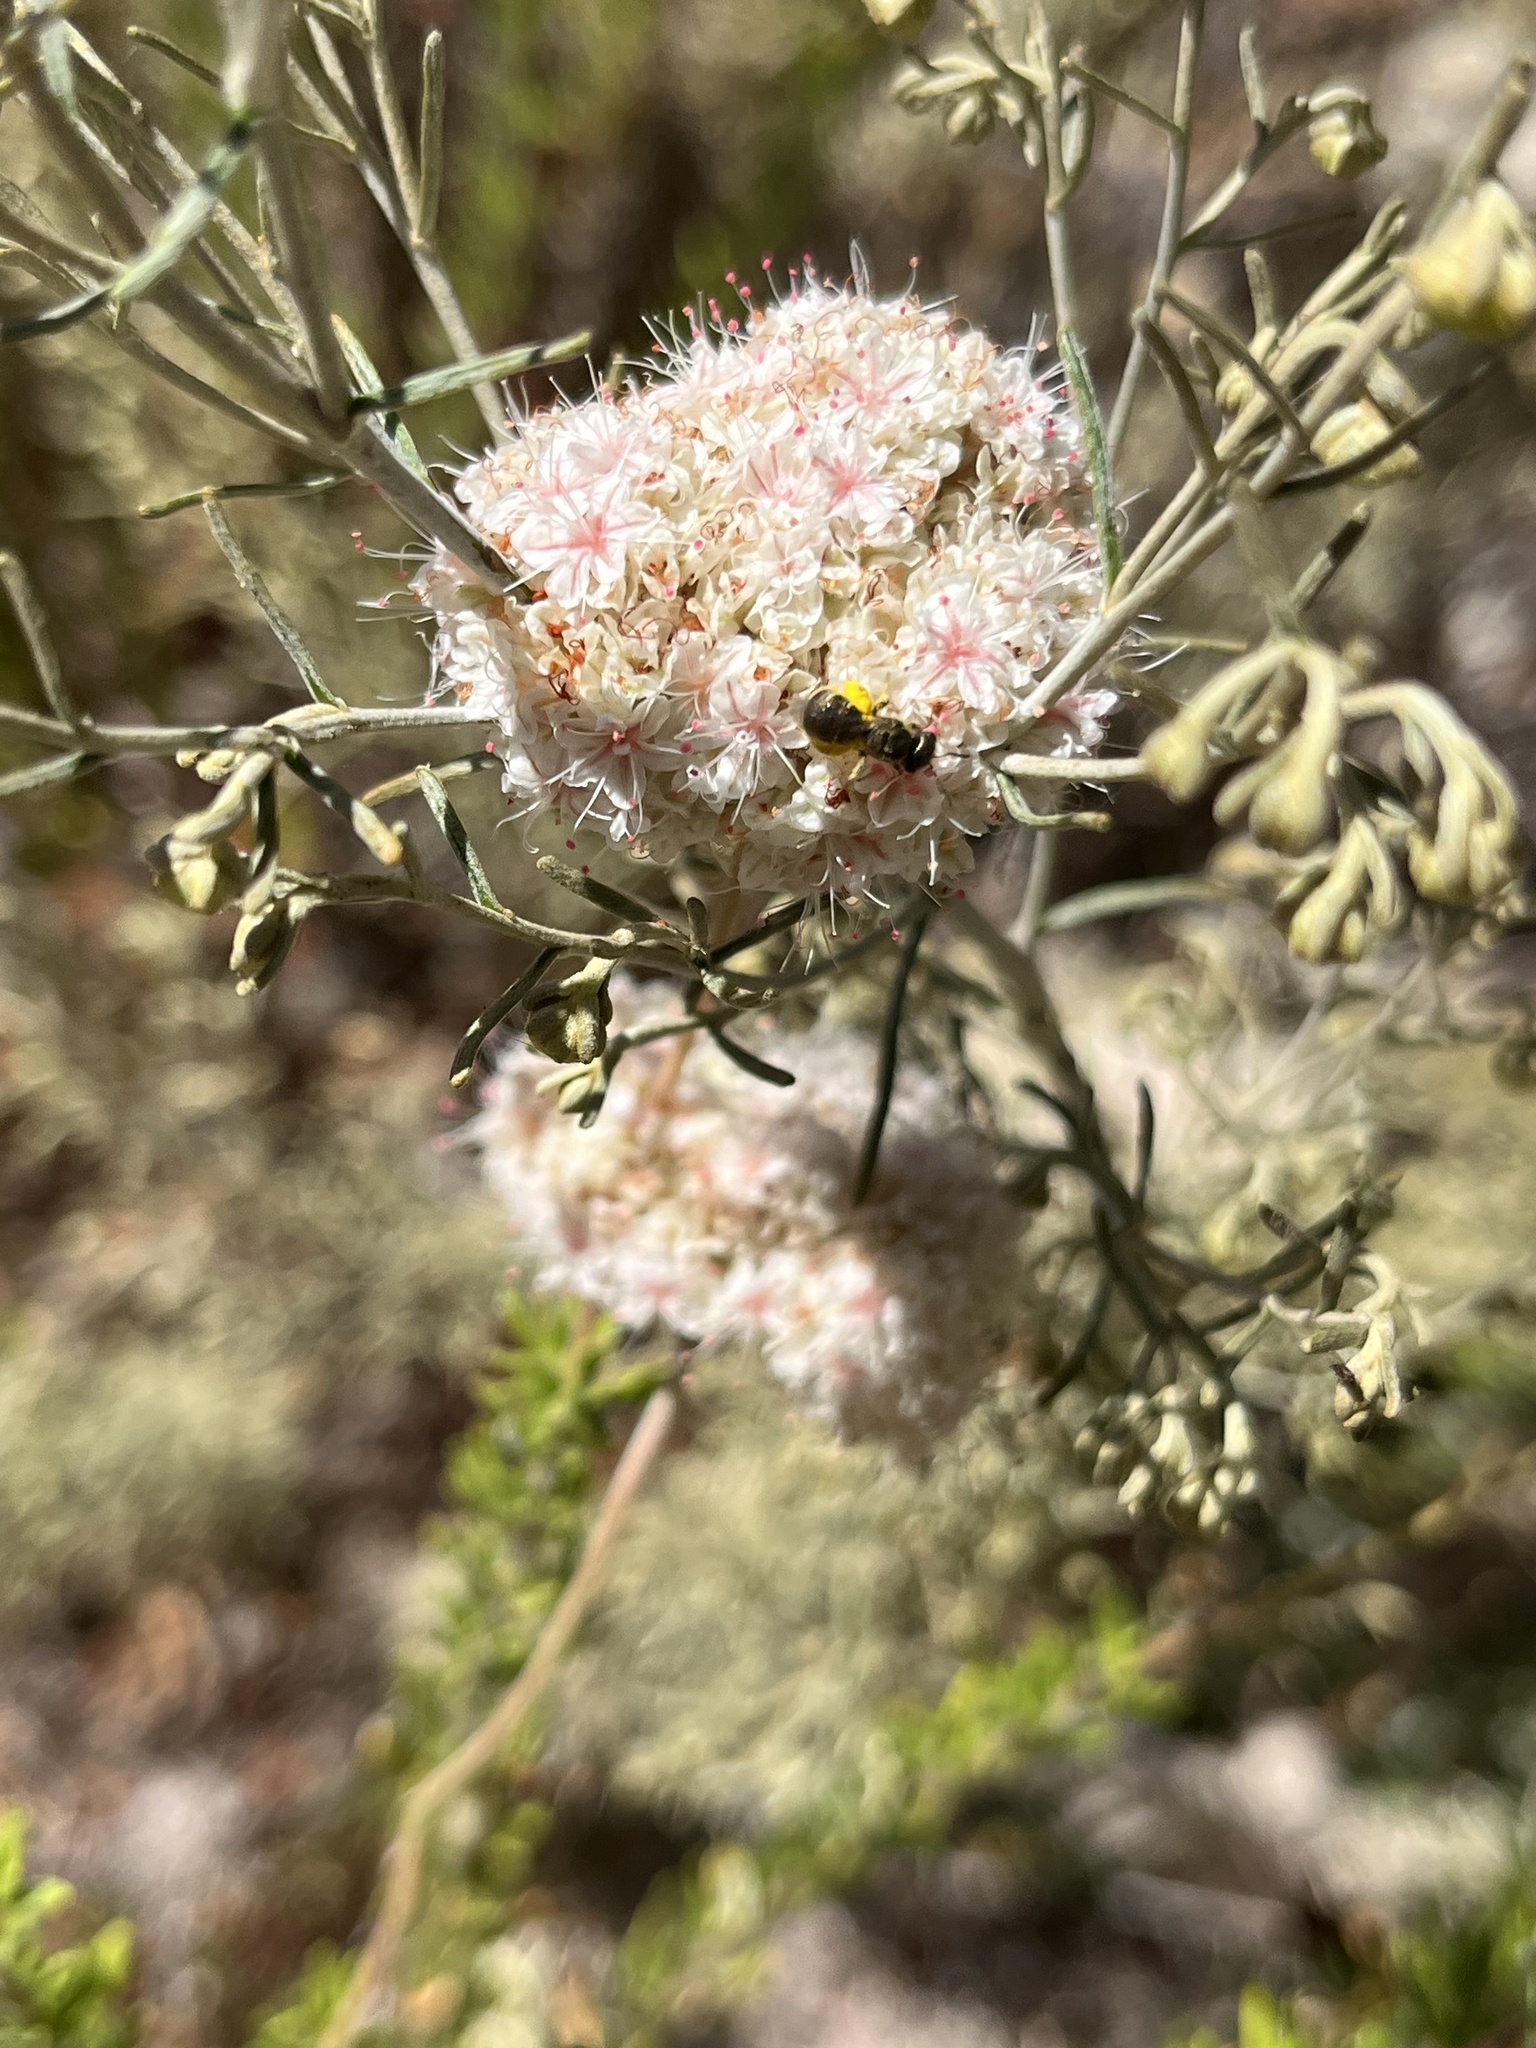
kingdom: Animalia
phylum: Arthropoda
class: Insecta
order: Hymenoptera
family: Halictidae
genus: Halictus
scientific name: Halictus tripartitus
